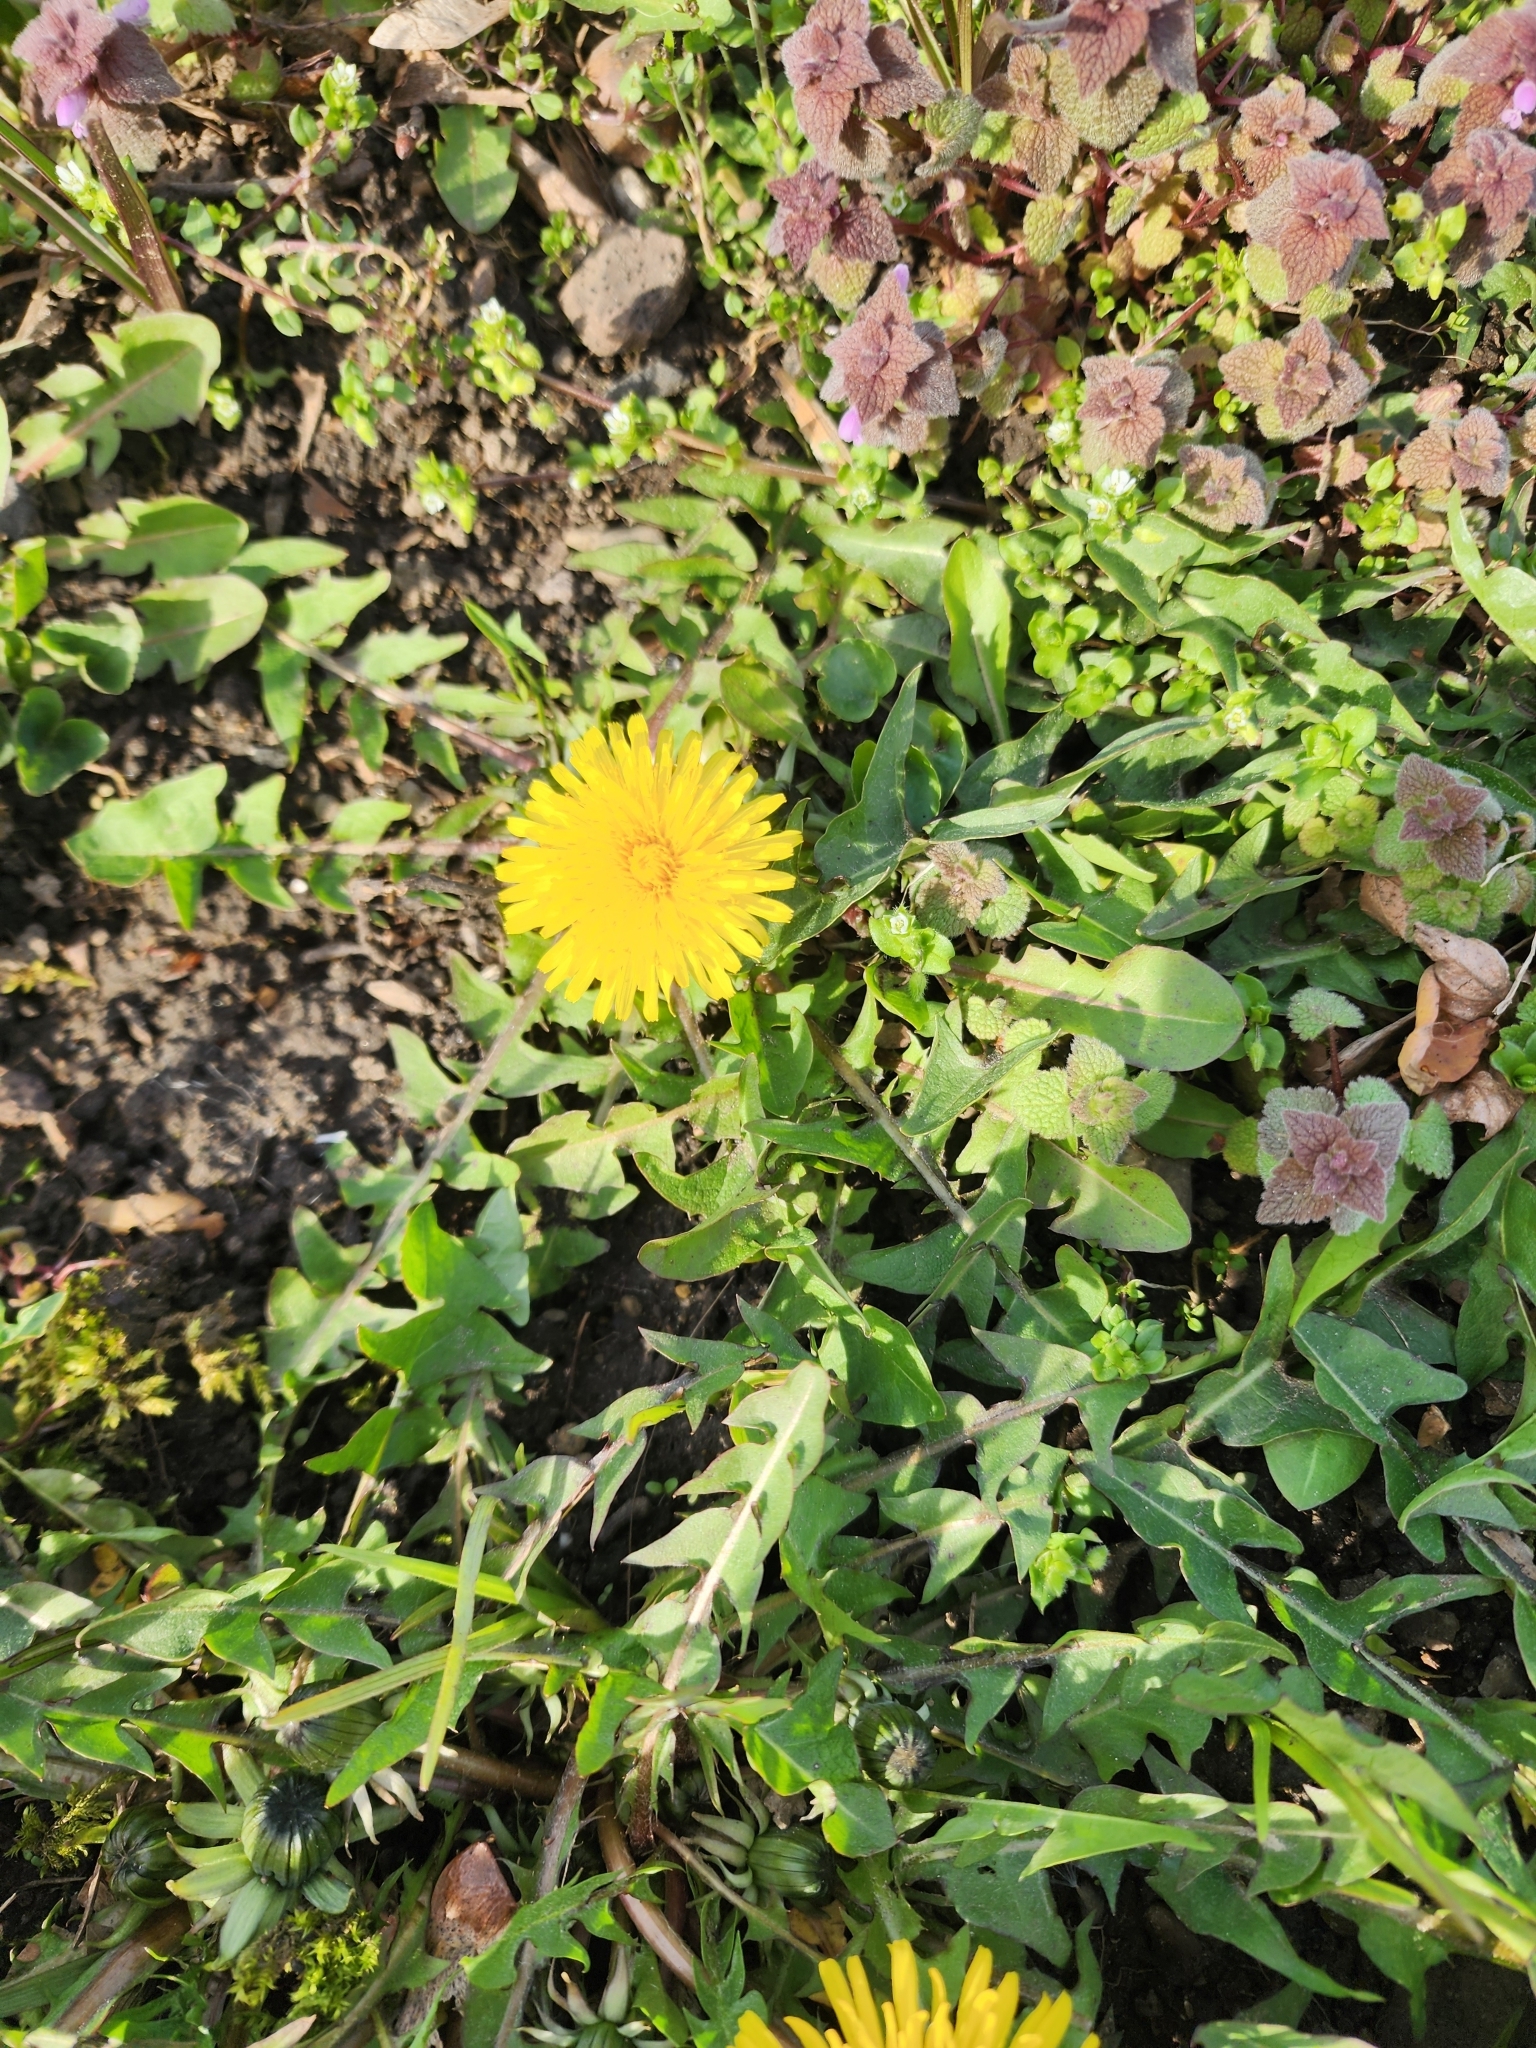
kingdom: Plantae
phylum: Tracheophyta
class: Magnoliopsida
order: Asterales
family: Asteraceae
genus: Taraxacum
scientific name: Taraxacum officinale
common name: Common dandelion
